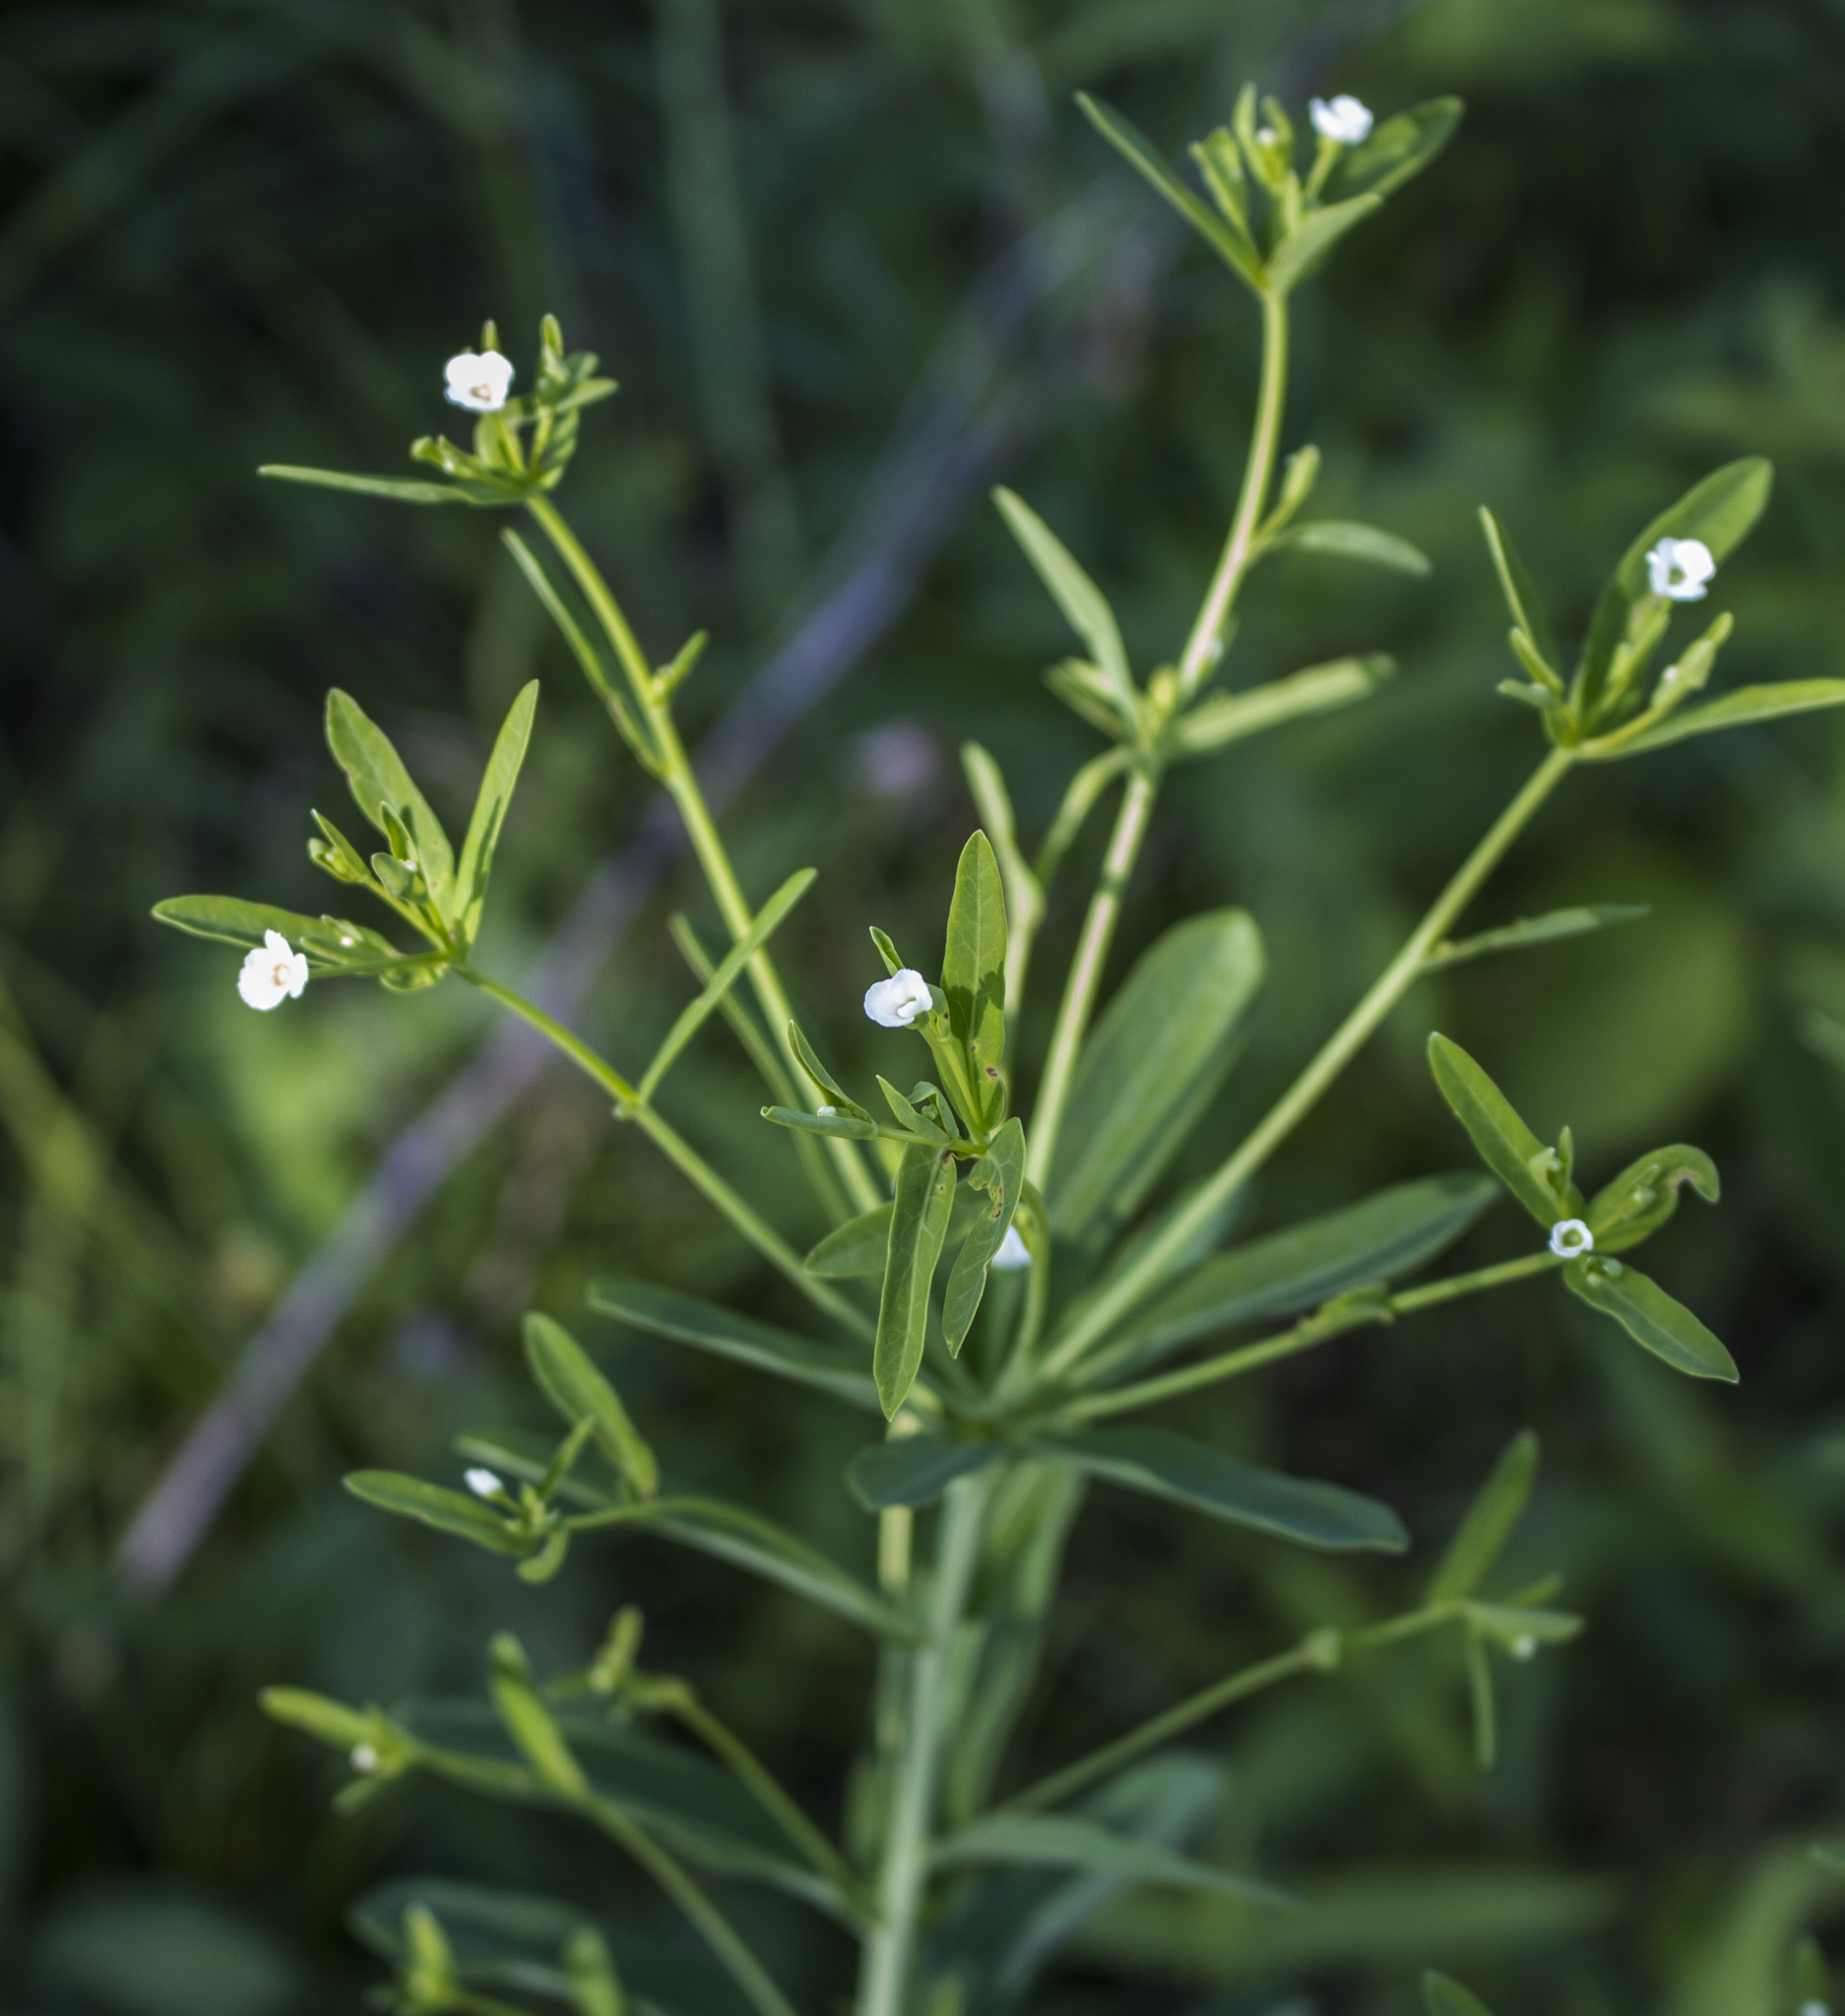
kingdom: Plantae
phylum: Tracheophyta
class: Magnoliopsida
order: Malpighiales
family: Euphorbiaceae
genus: Euphorbia
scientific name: Euphorbia corollata
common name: Flowering spurge
